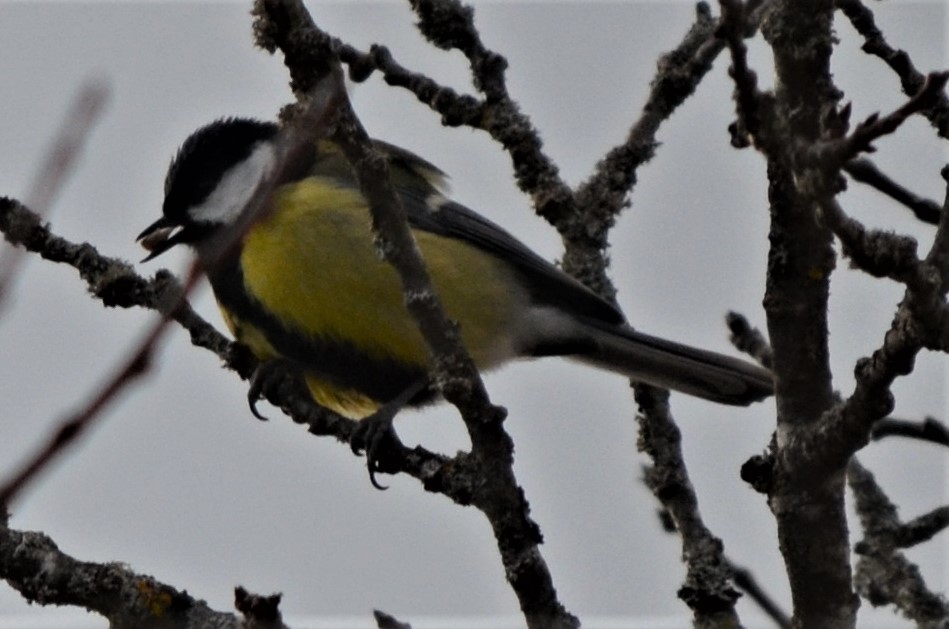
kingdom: Animalia
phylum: Chordata
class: Aves
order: Passeriformes
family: Paridae
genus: Parus
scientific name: Parus major
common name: Great tit
